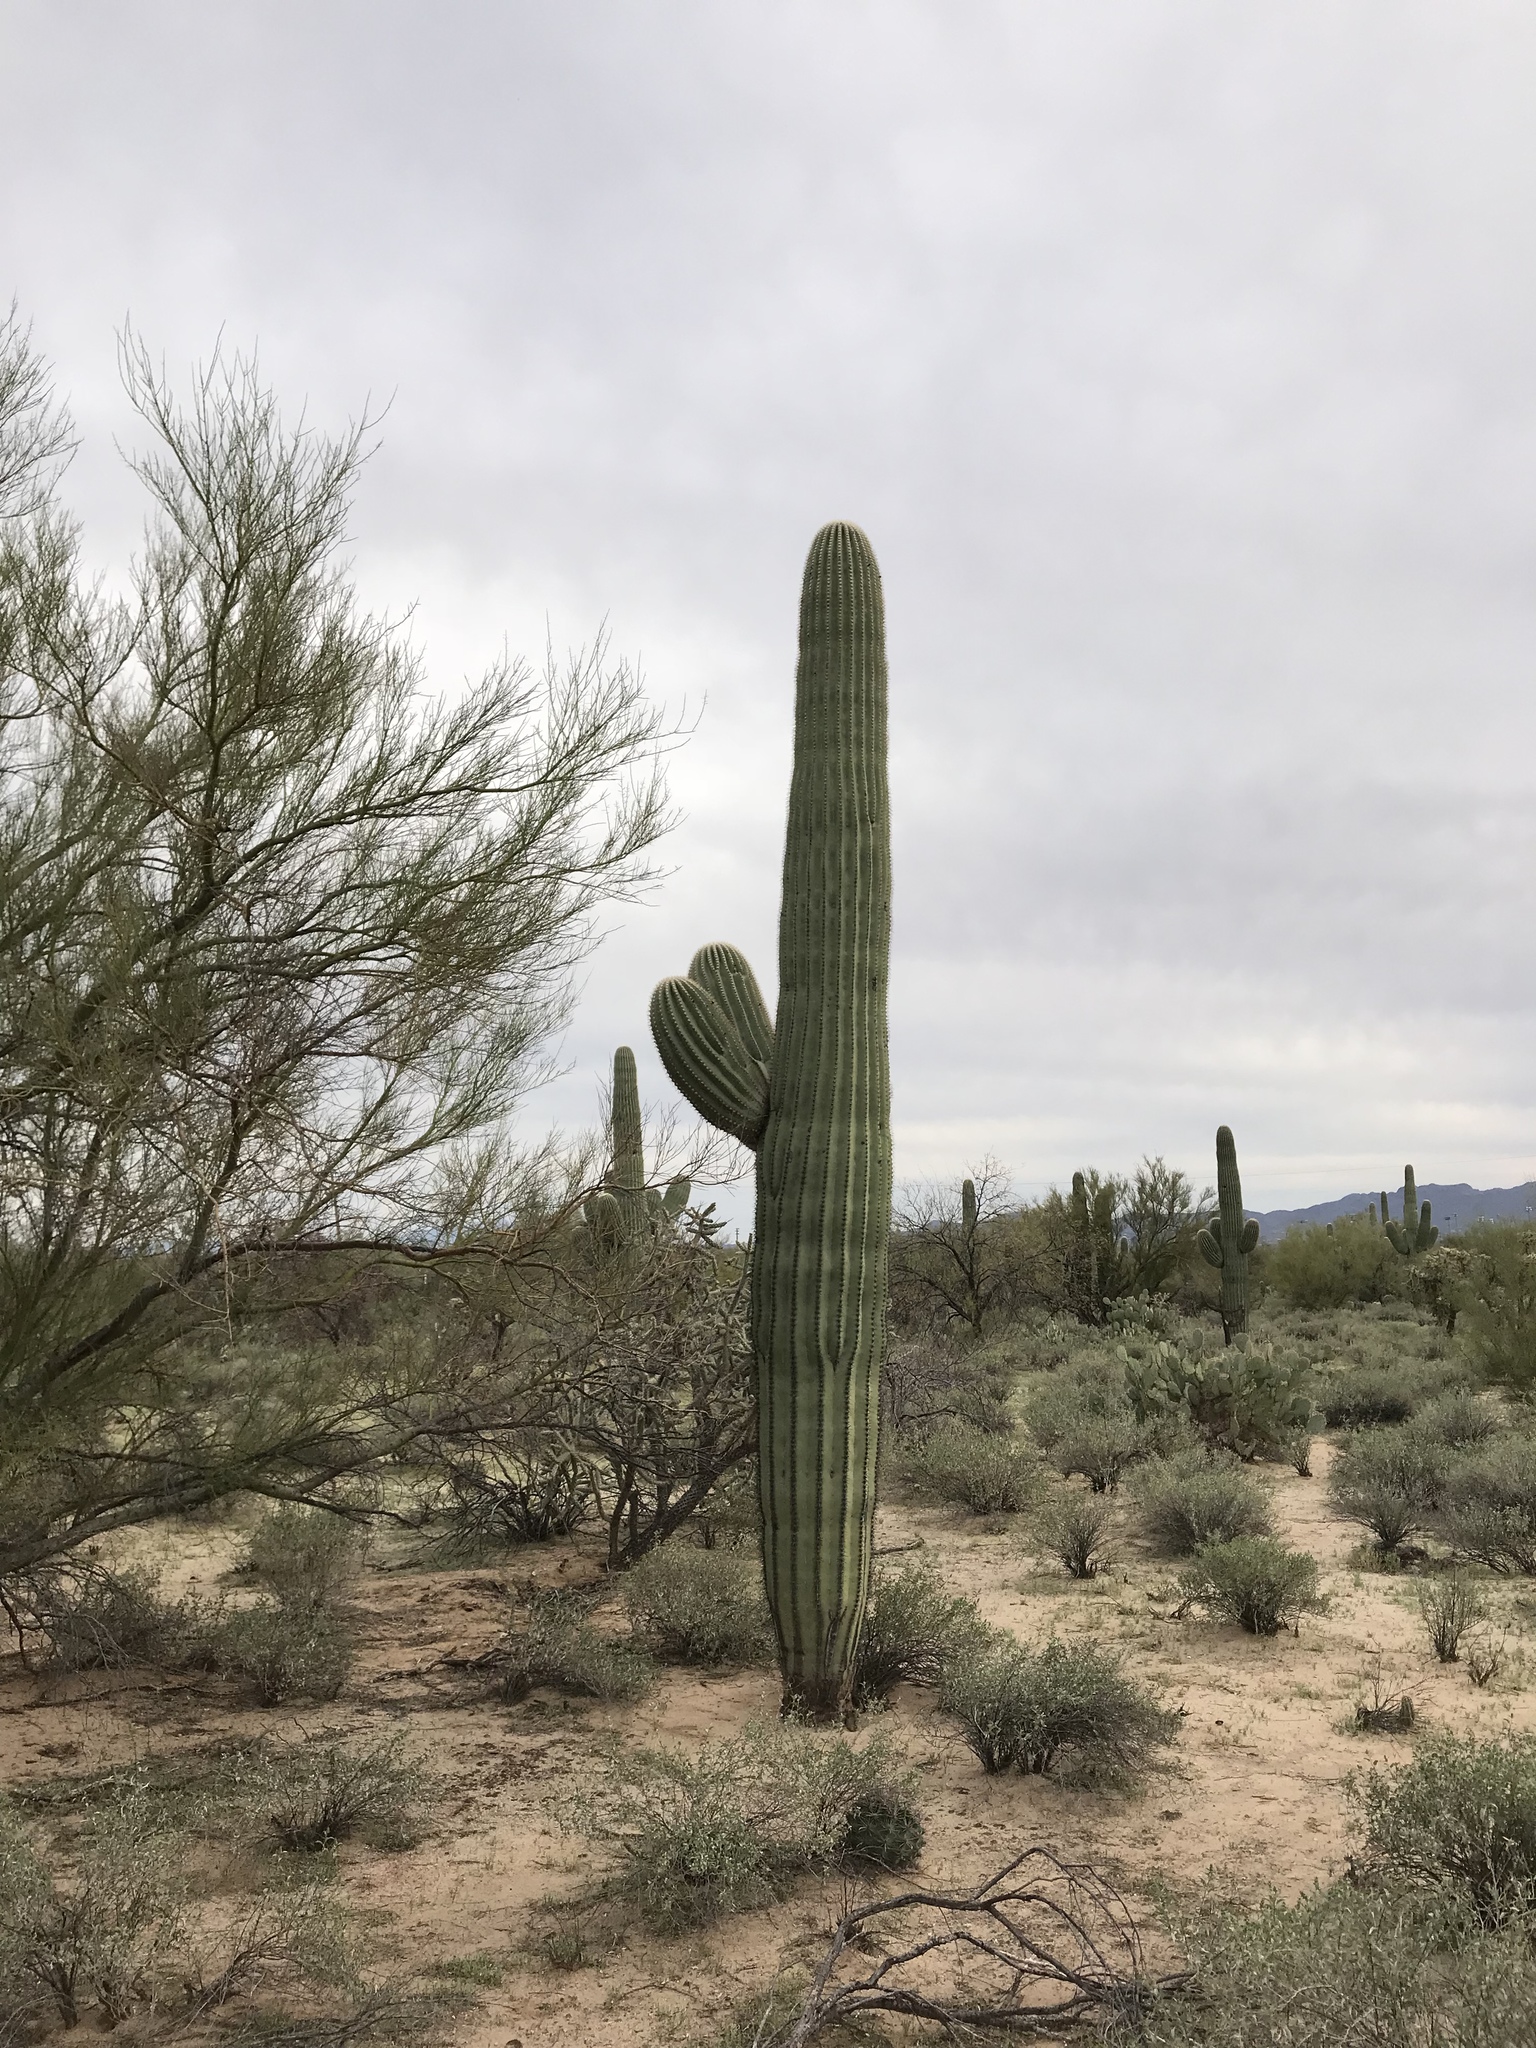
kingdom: Plantae
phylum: Tracheophyta
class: Magnoliopsida
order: Caryophyllales
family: Cactaceae
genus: Carnegiea
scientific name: Carnegiea gigantea
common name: Saguaro
